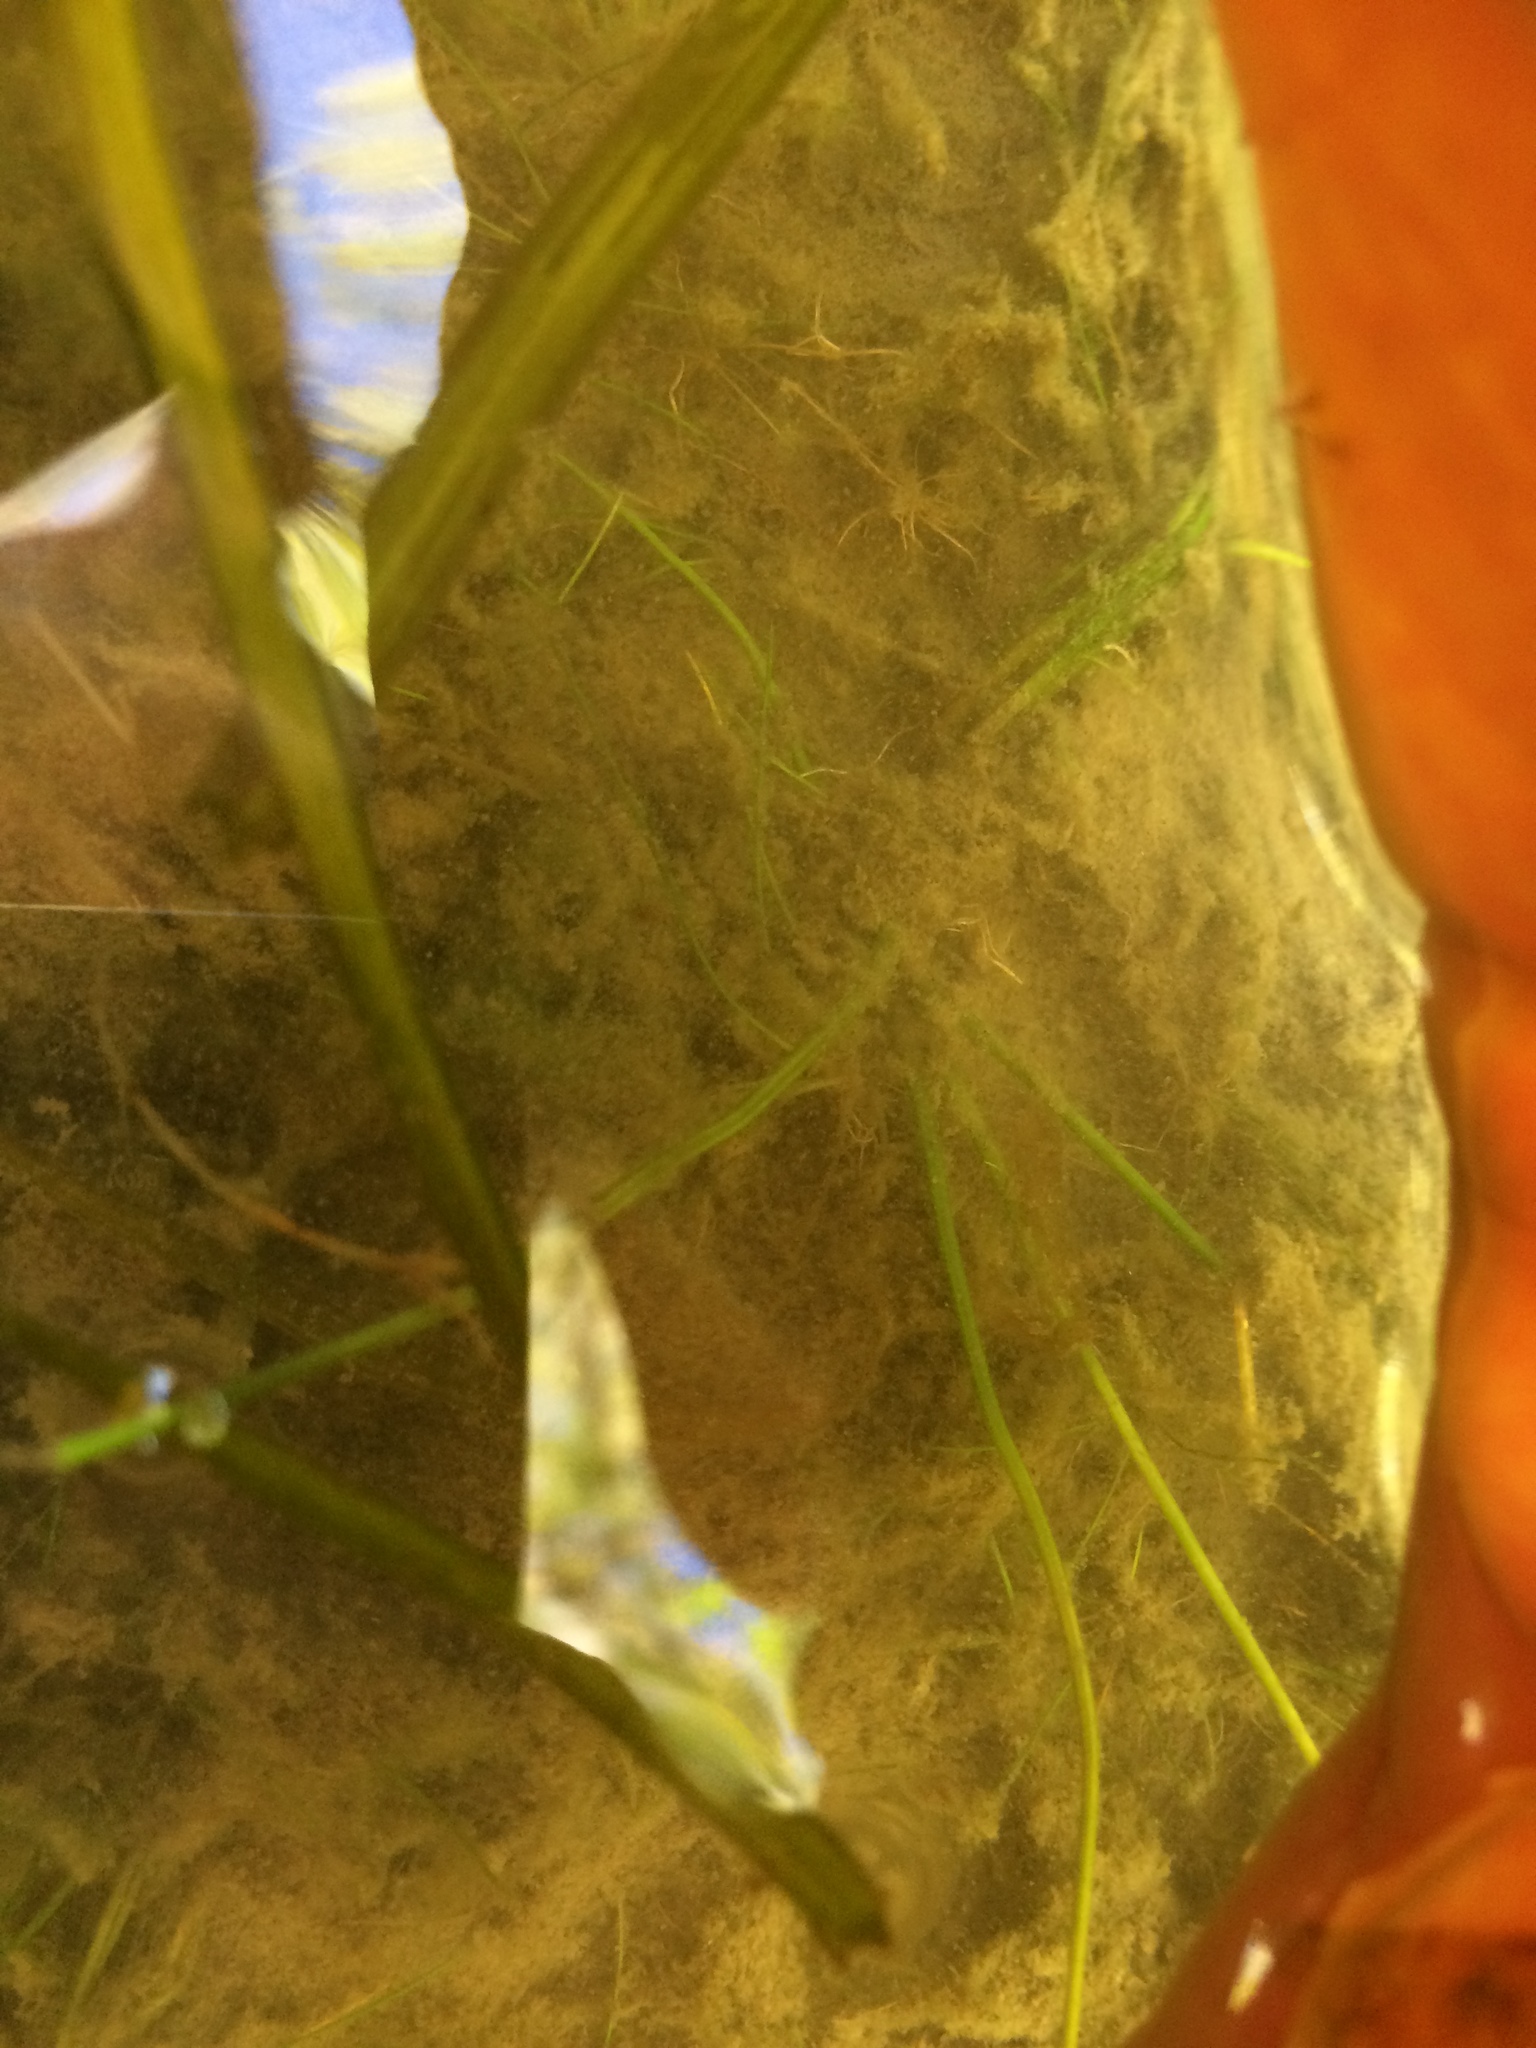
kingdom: Plantae
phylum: Tracheophyta
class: Lycopodiopsida
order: Isoetales
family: Isoetaceae
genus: Isoetes
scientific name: Isoetes septentrionalis
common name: Northern quillwort
